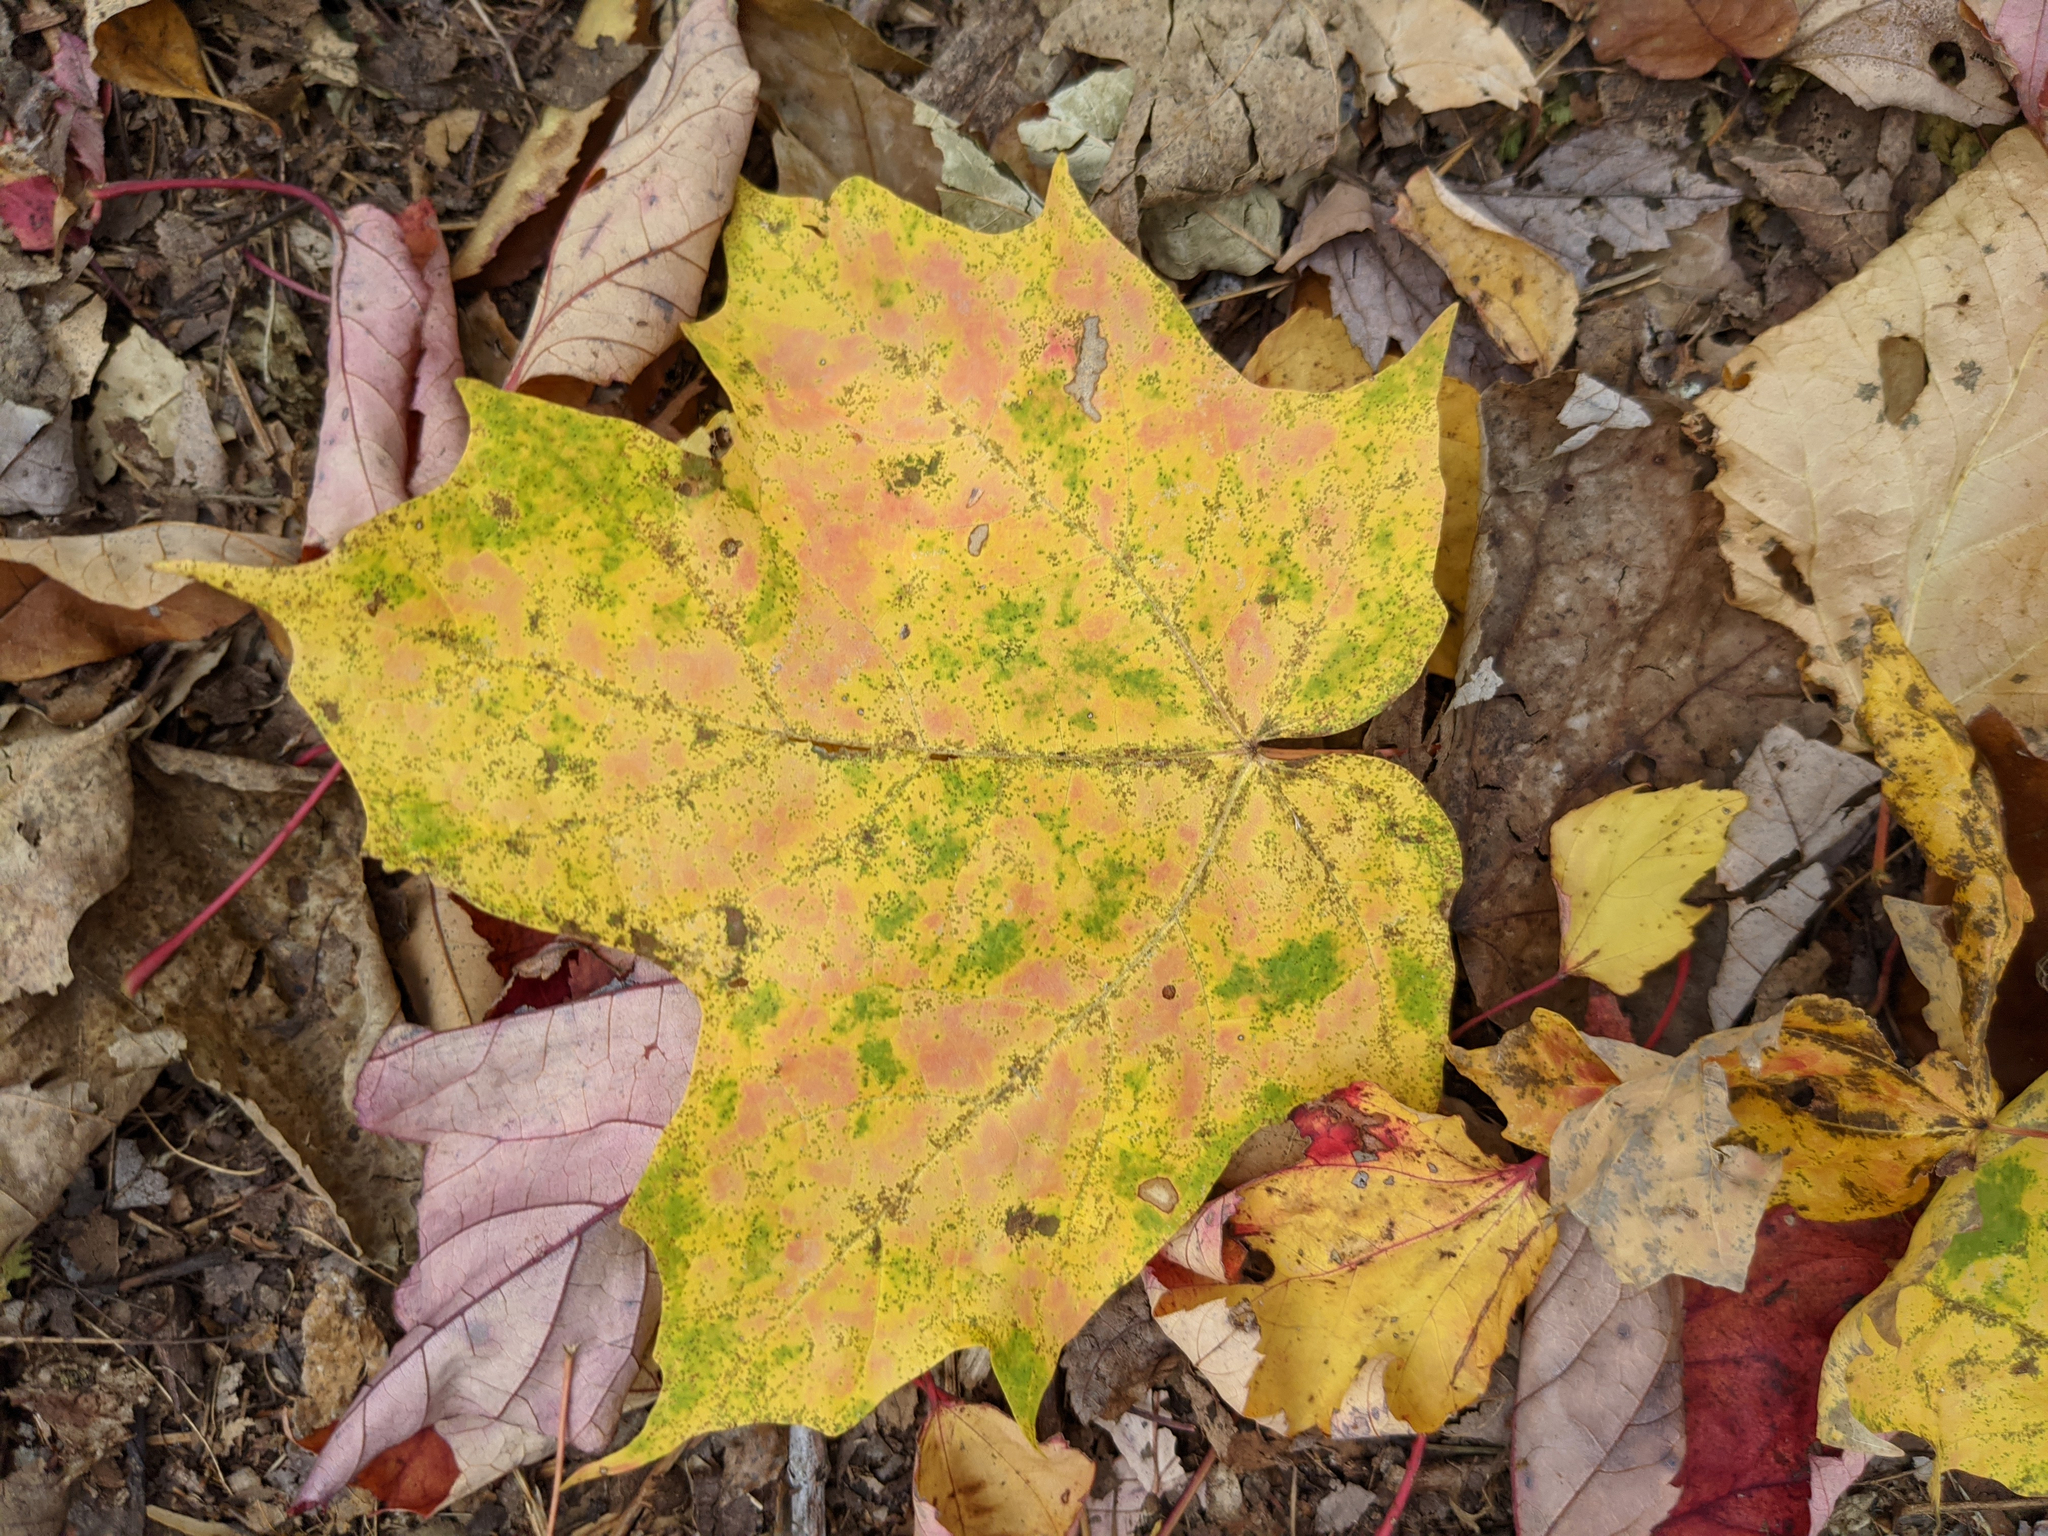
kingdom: Plantae
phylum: Tracheophyta
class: Magnoliopsida
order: Sapindales
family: Sapindaceae
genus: Acer
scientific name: Acer saccharum
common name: Sugar maple
